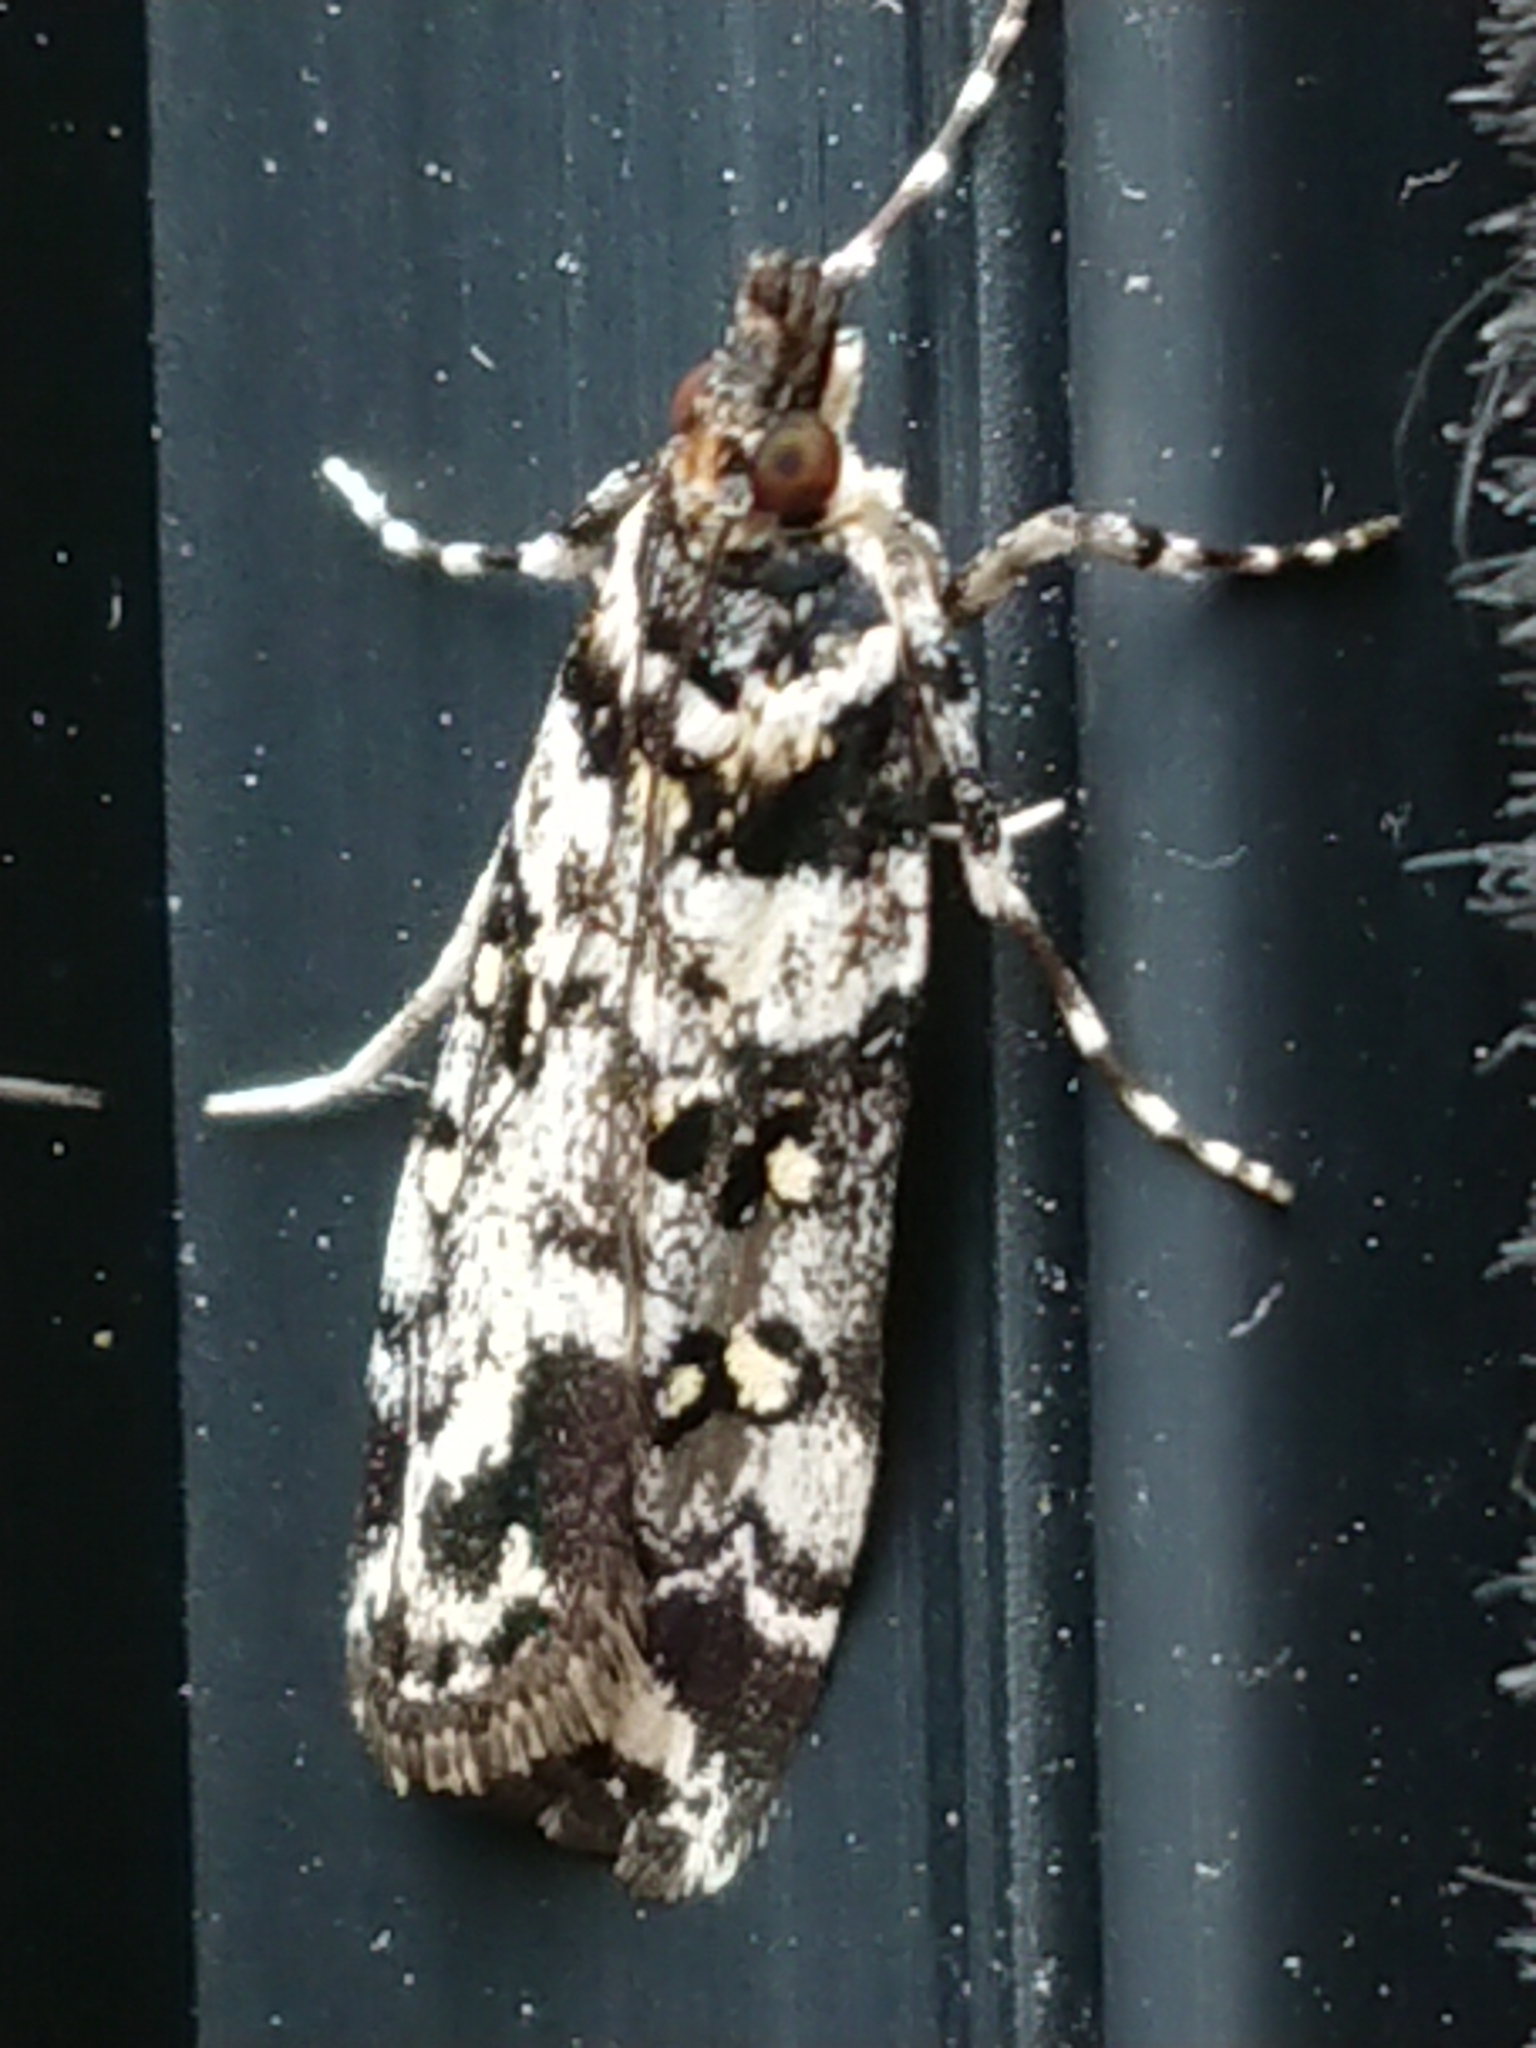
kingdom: Animalia
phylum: Arthropoda
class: Insecta
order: Lepidoptera
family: Crambidae
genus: Eudonia
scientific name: Eudonia diphtheralis
